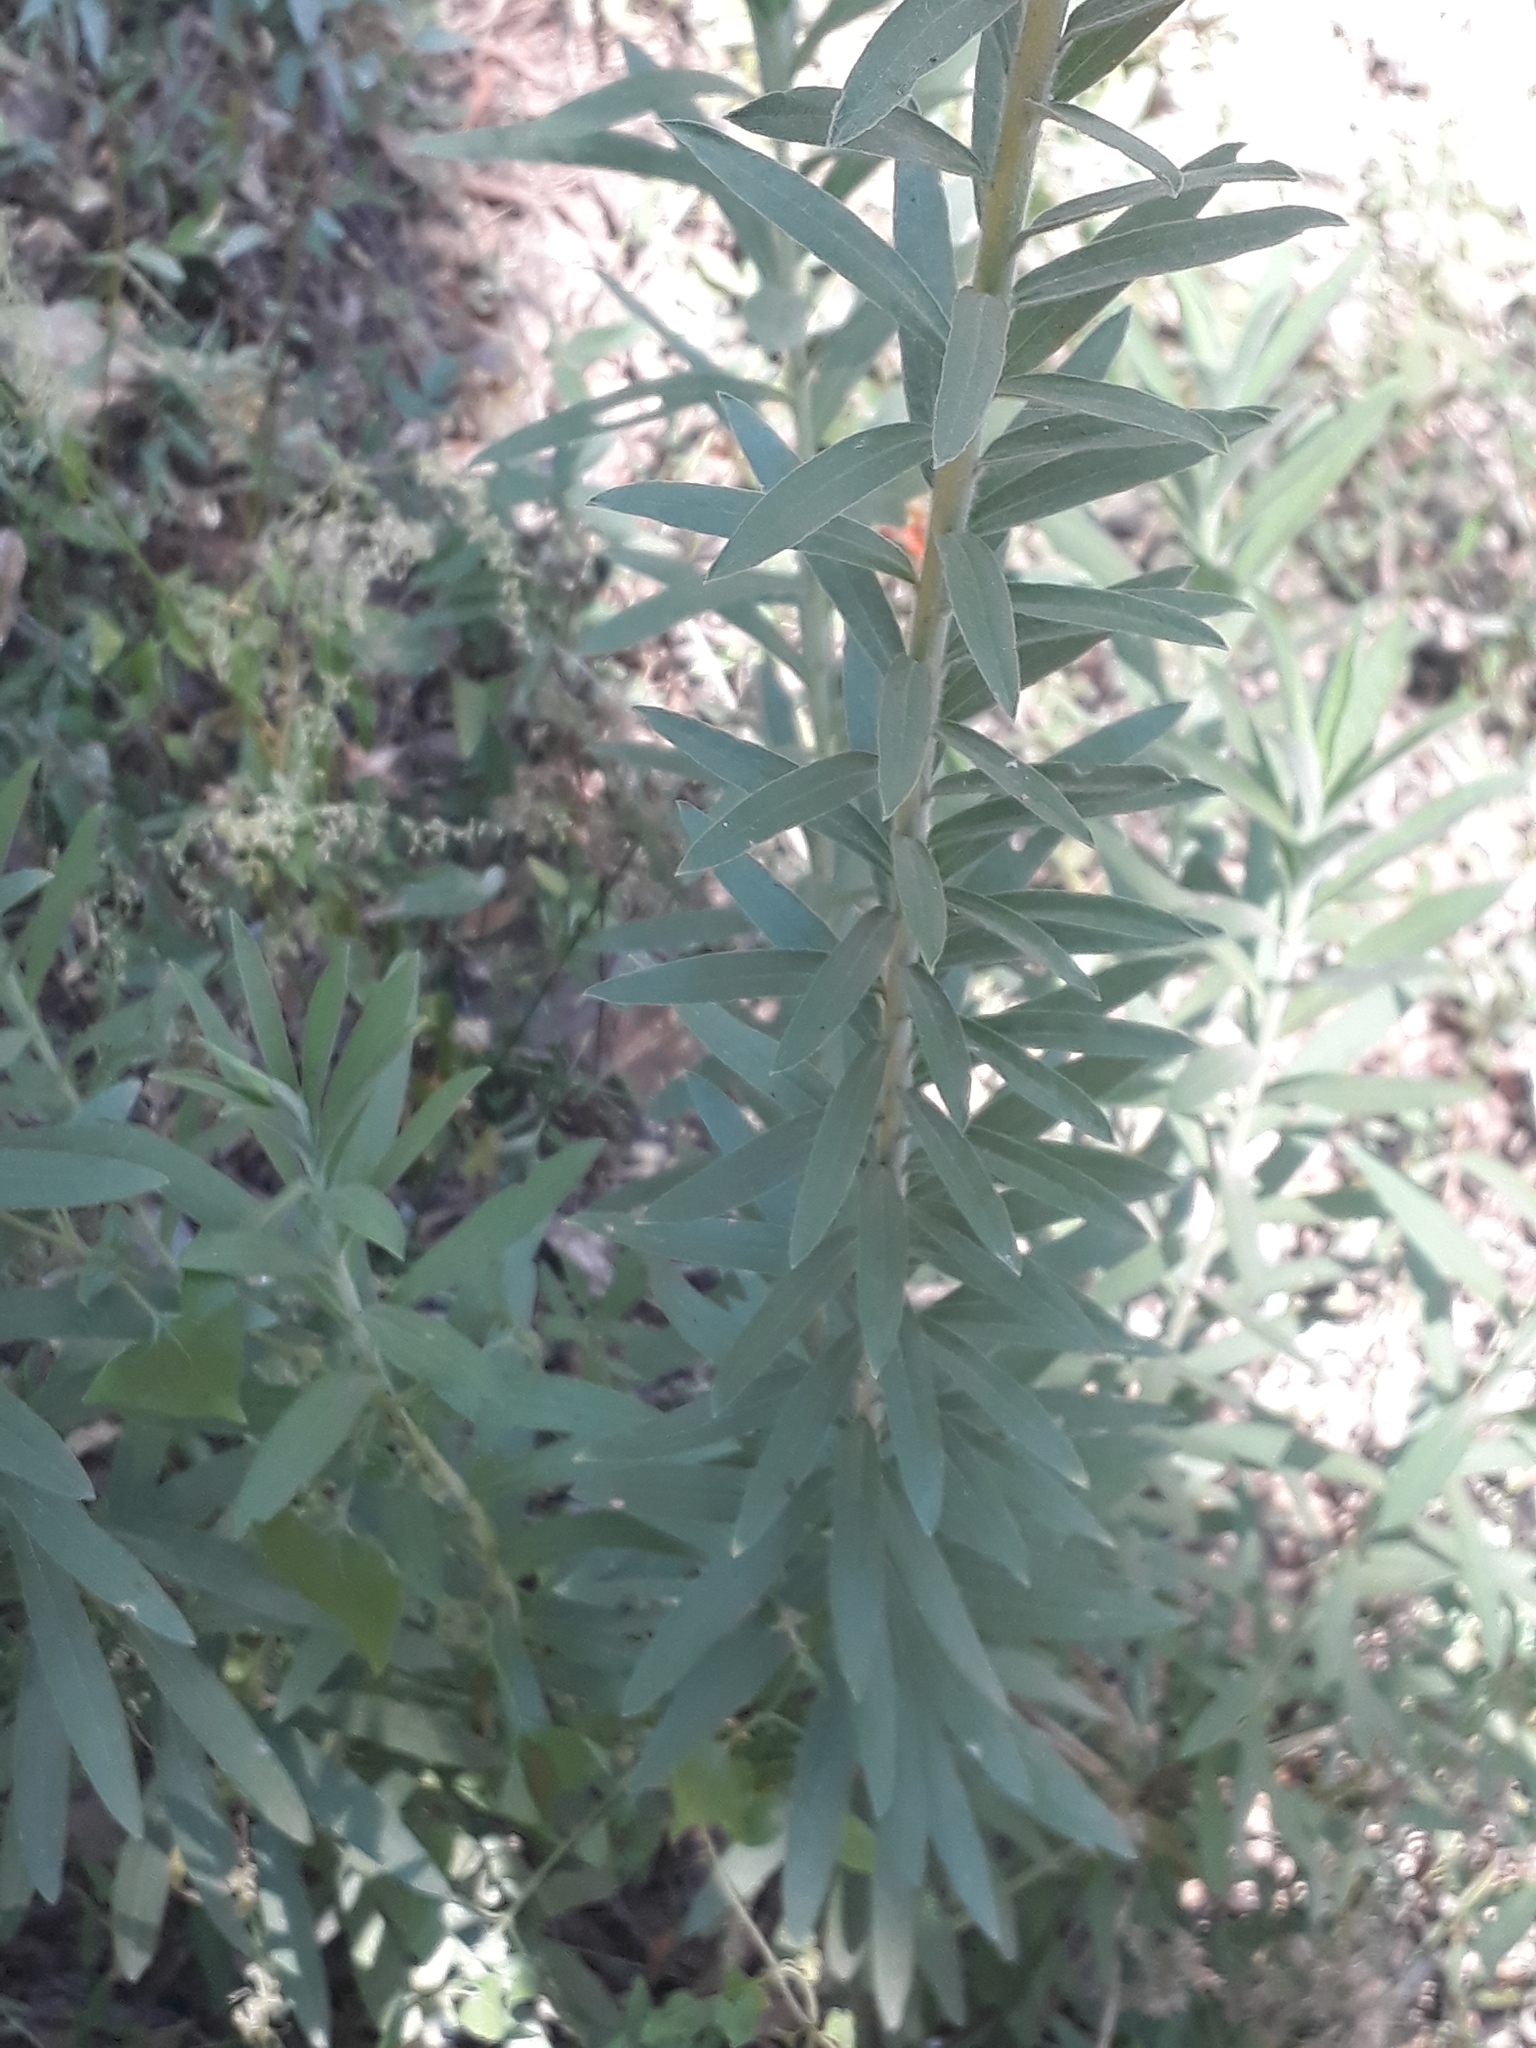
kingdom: Plantae
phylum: Tracheophyta
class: Magnoliopsida
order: Asterales
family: Asteraceae
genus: Solidago
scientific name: Solidago chilensis
